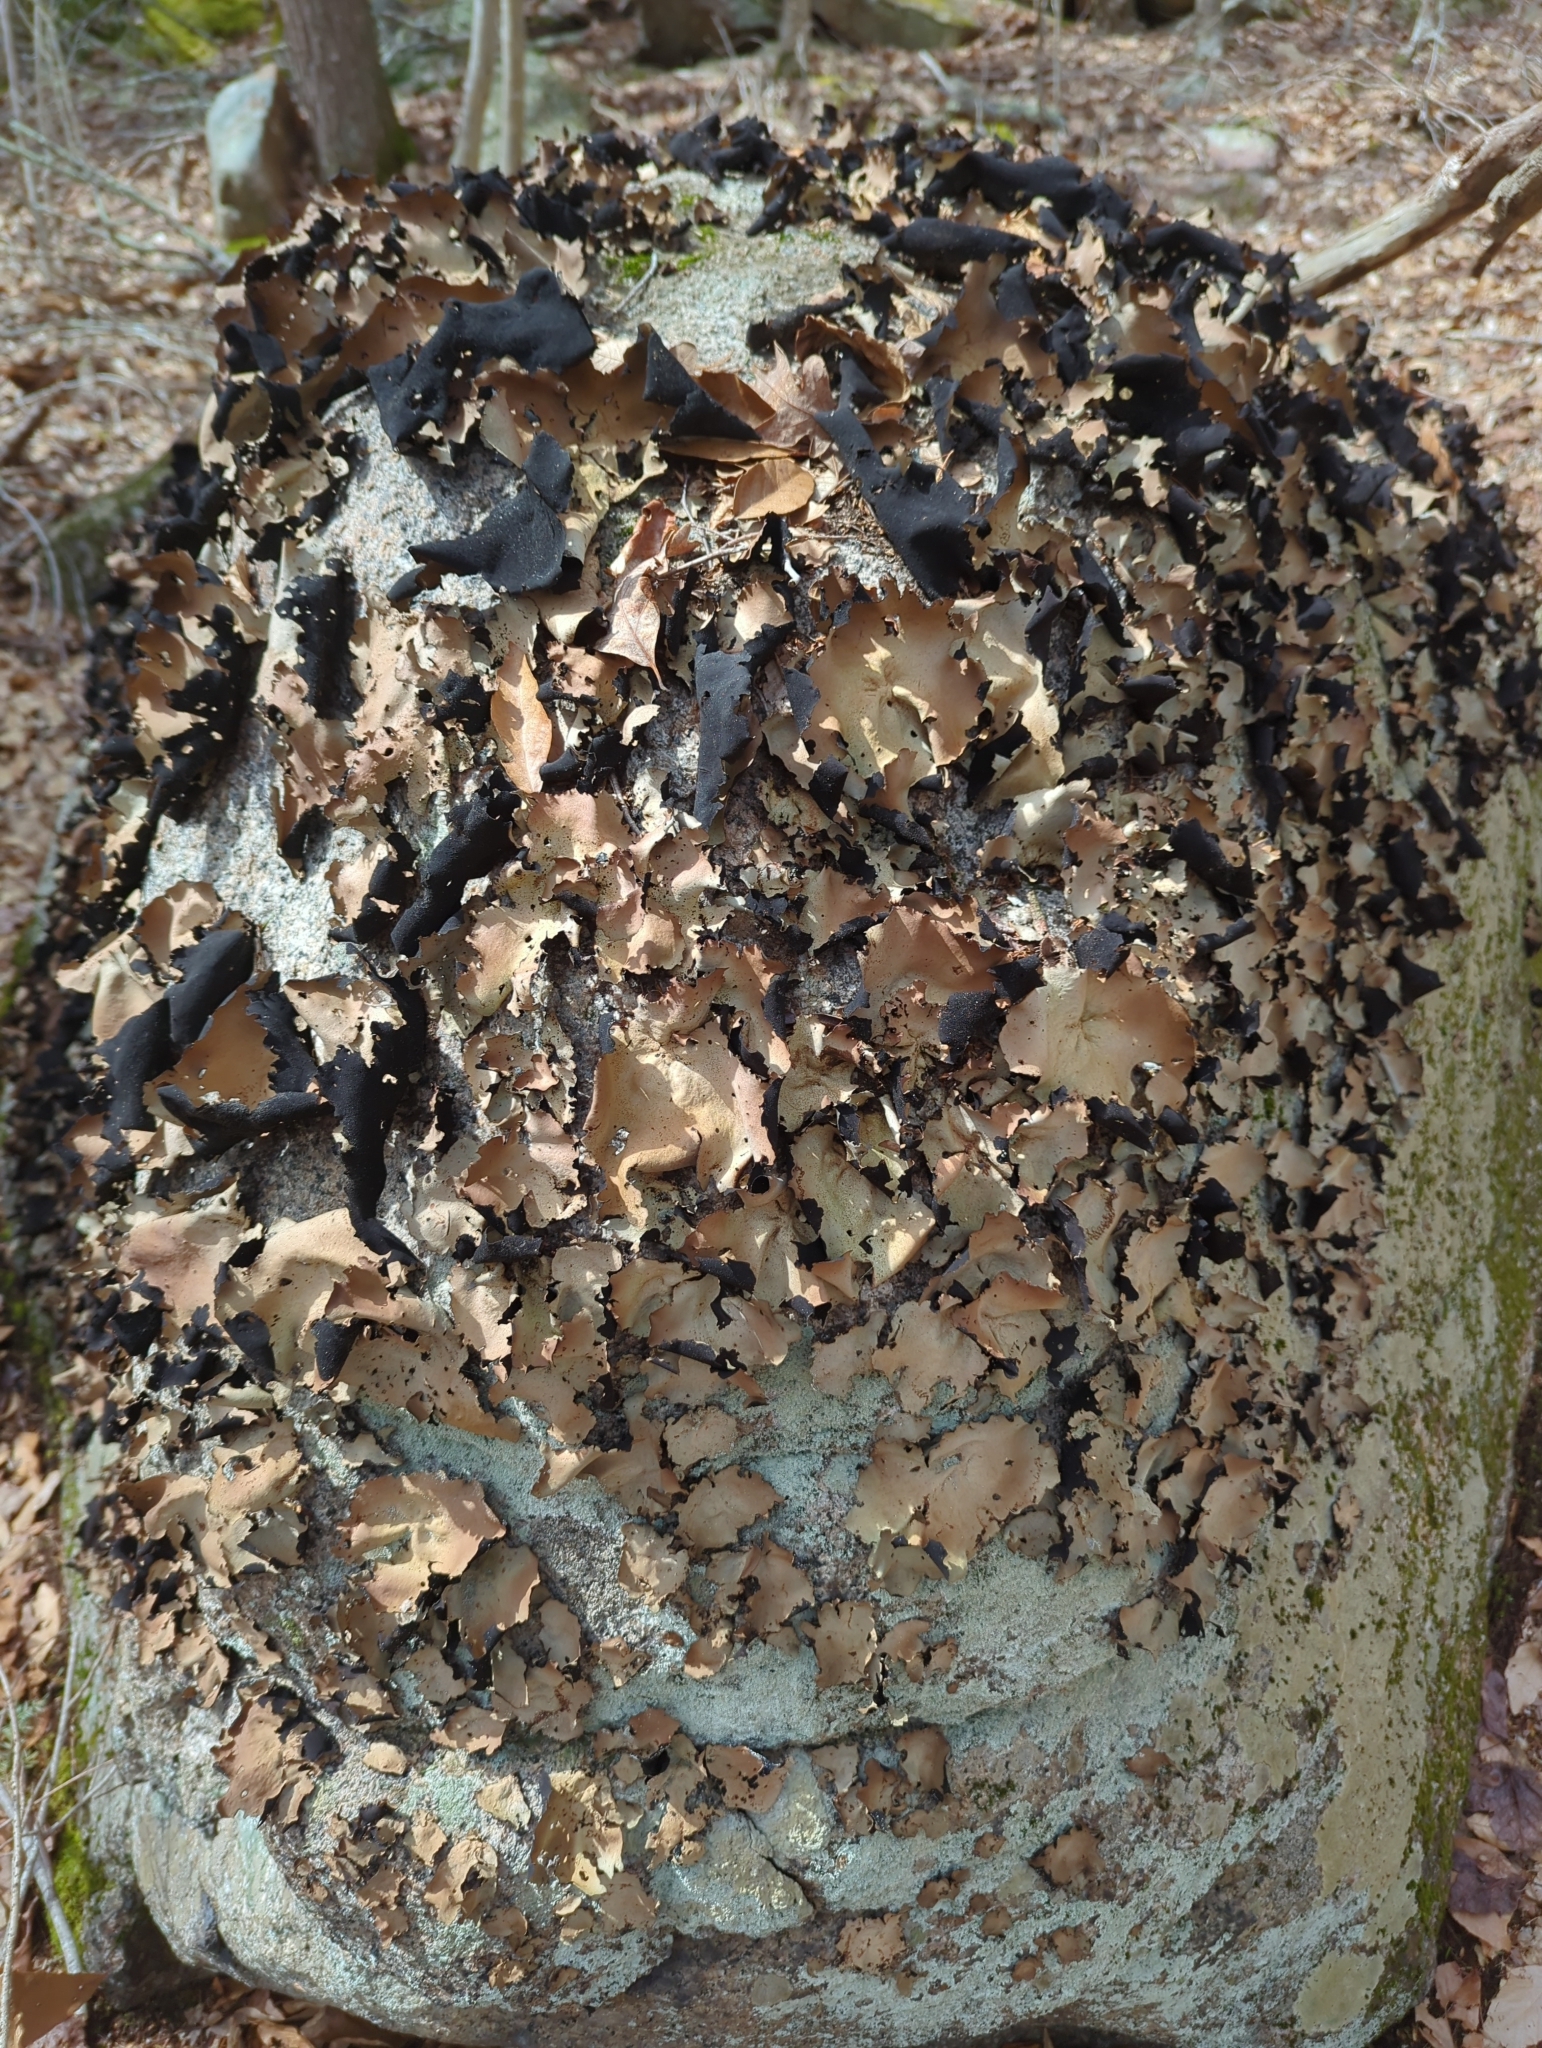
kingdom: Fungi
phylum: Ascomycota
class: Lecanoromycetes
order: Umbilicariales
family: Umbilicariaceae
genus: Umbilicaria
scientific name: Umbilicaria mammulata
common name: Smooth rock tripe
